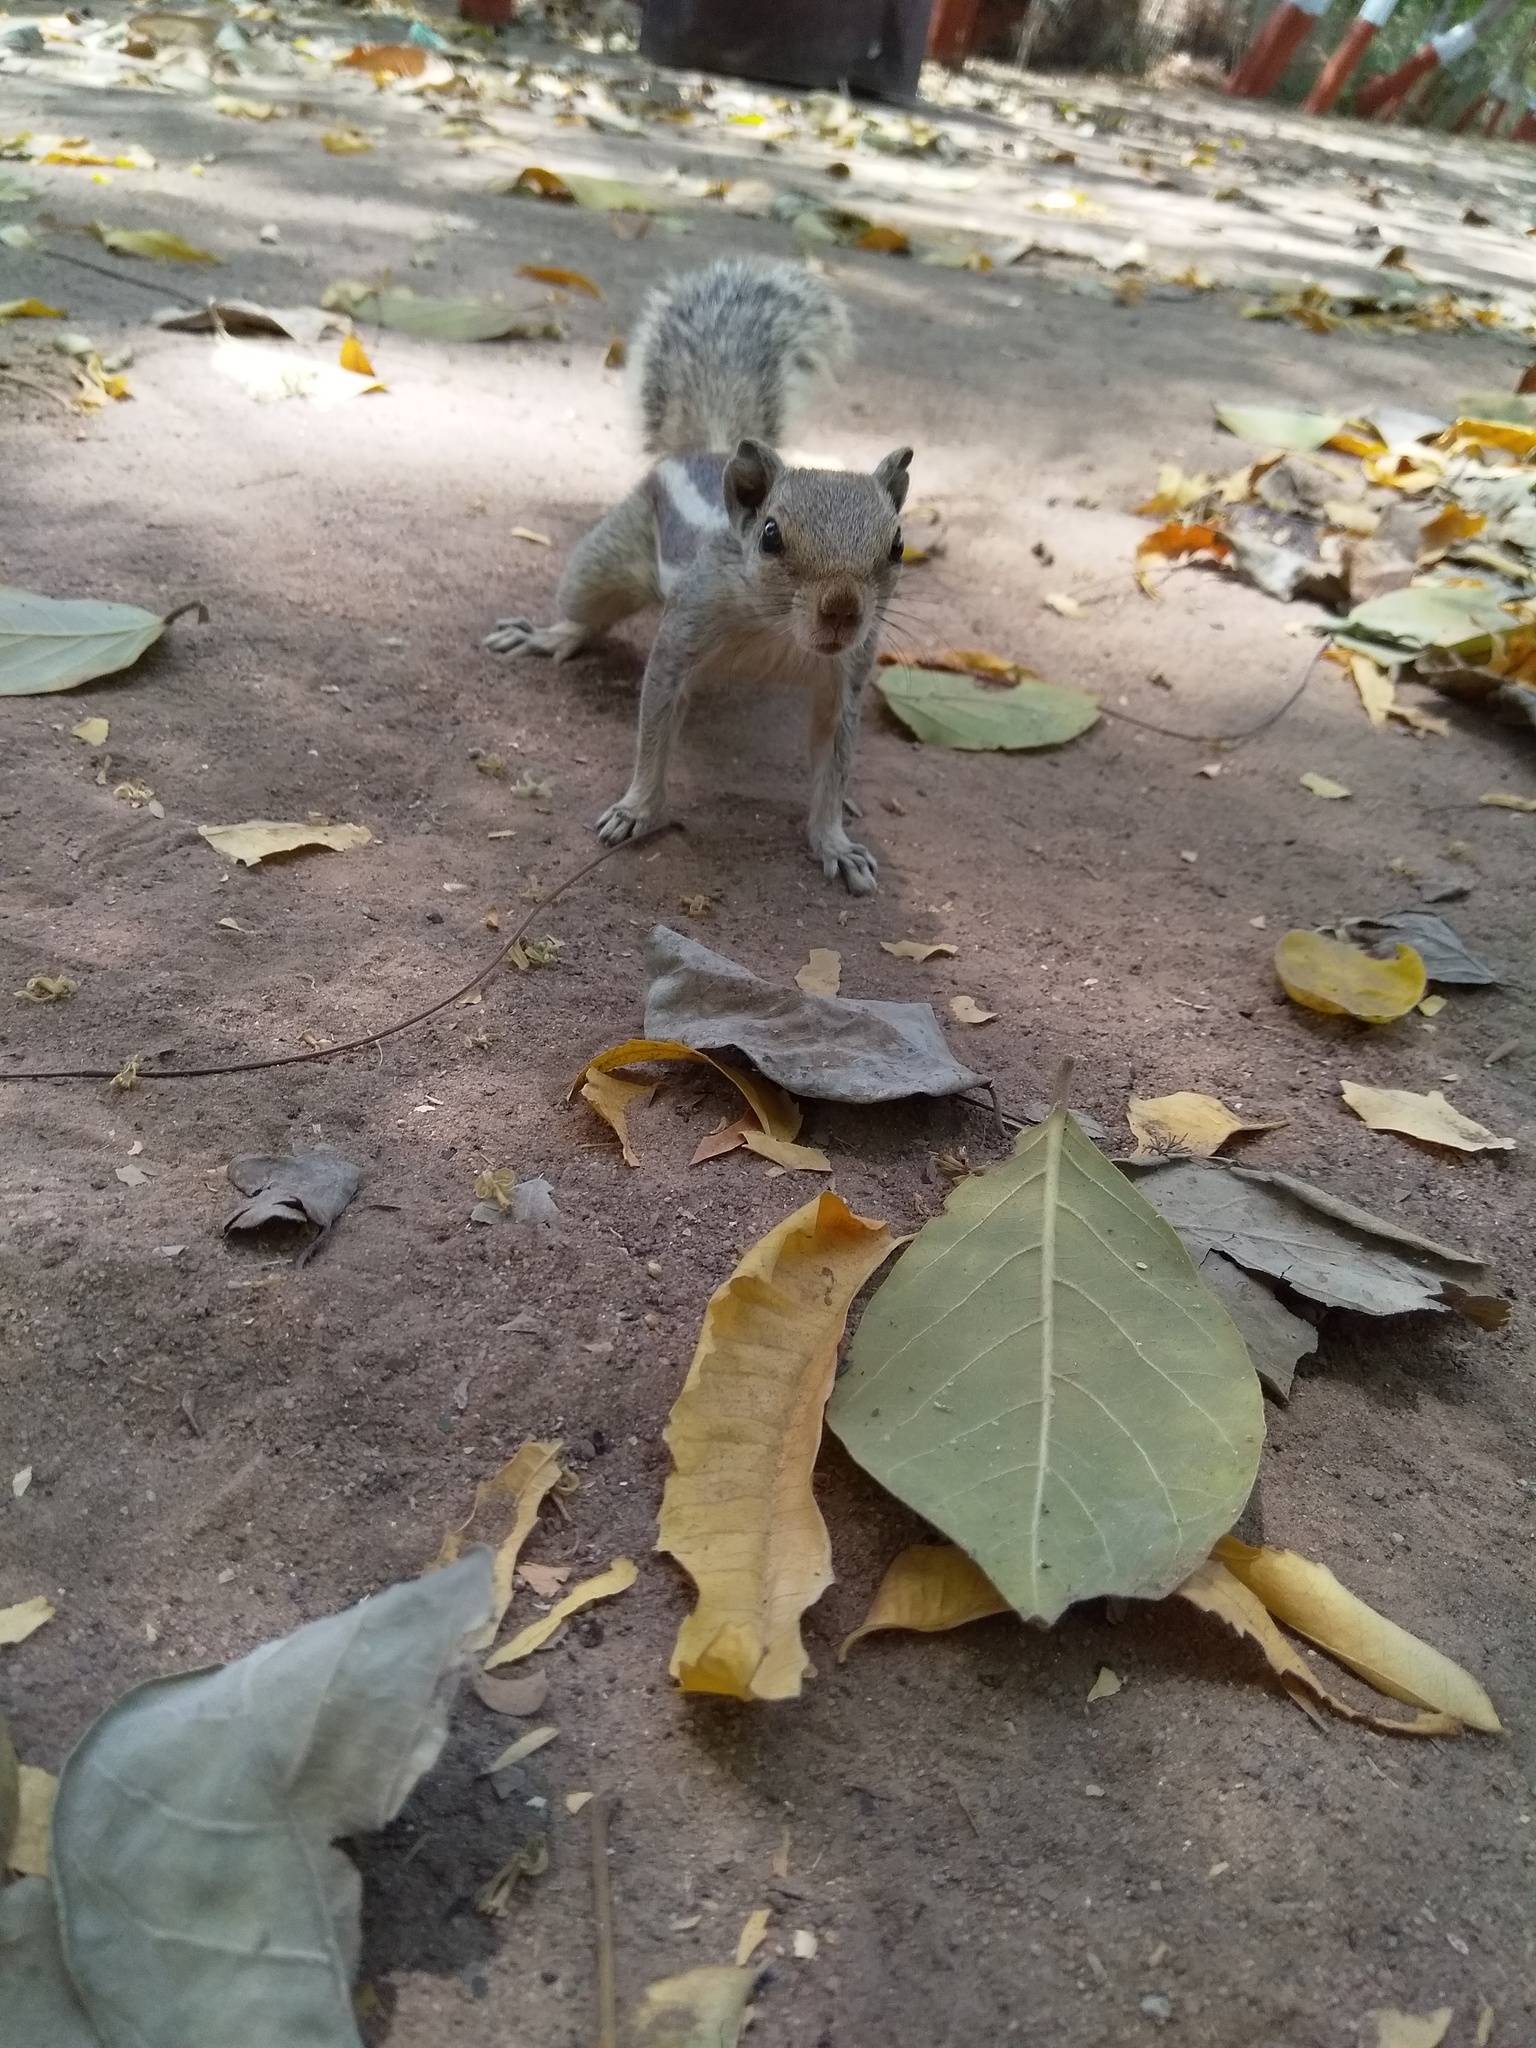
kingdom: Animalia
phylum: Chordata
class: Mammalia
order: Rodentia
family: Sciuridae
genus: Funambulus
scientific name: Funambulus pennantii
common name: Northern palm squirrel
